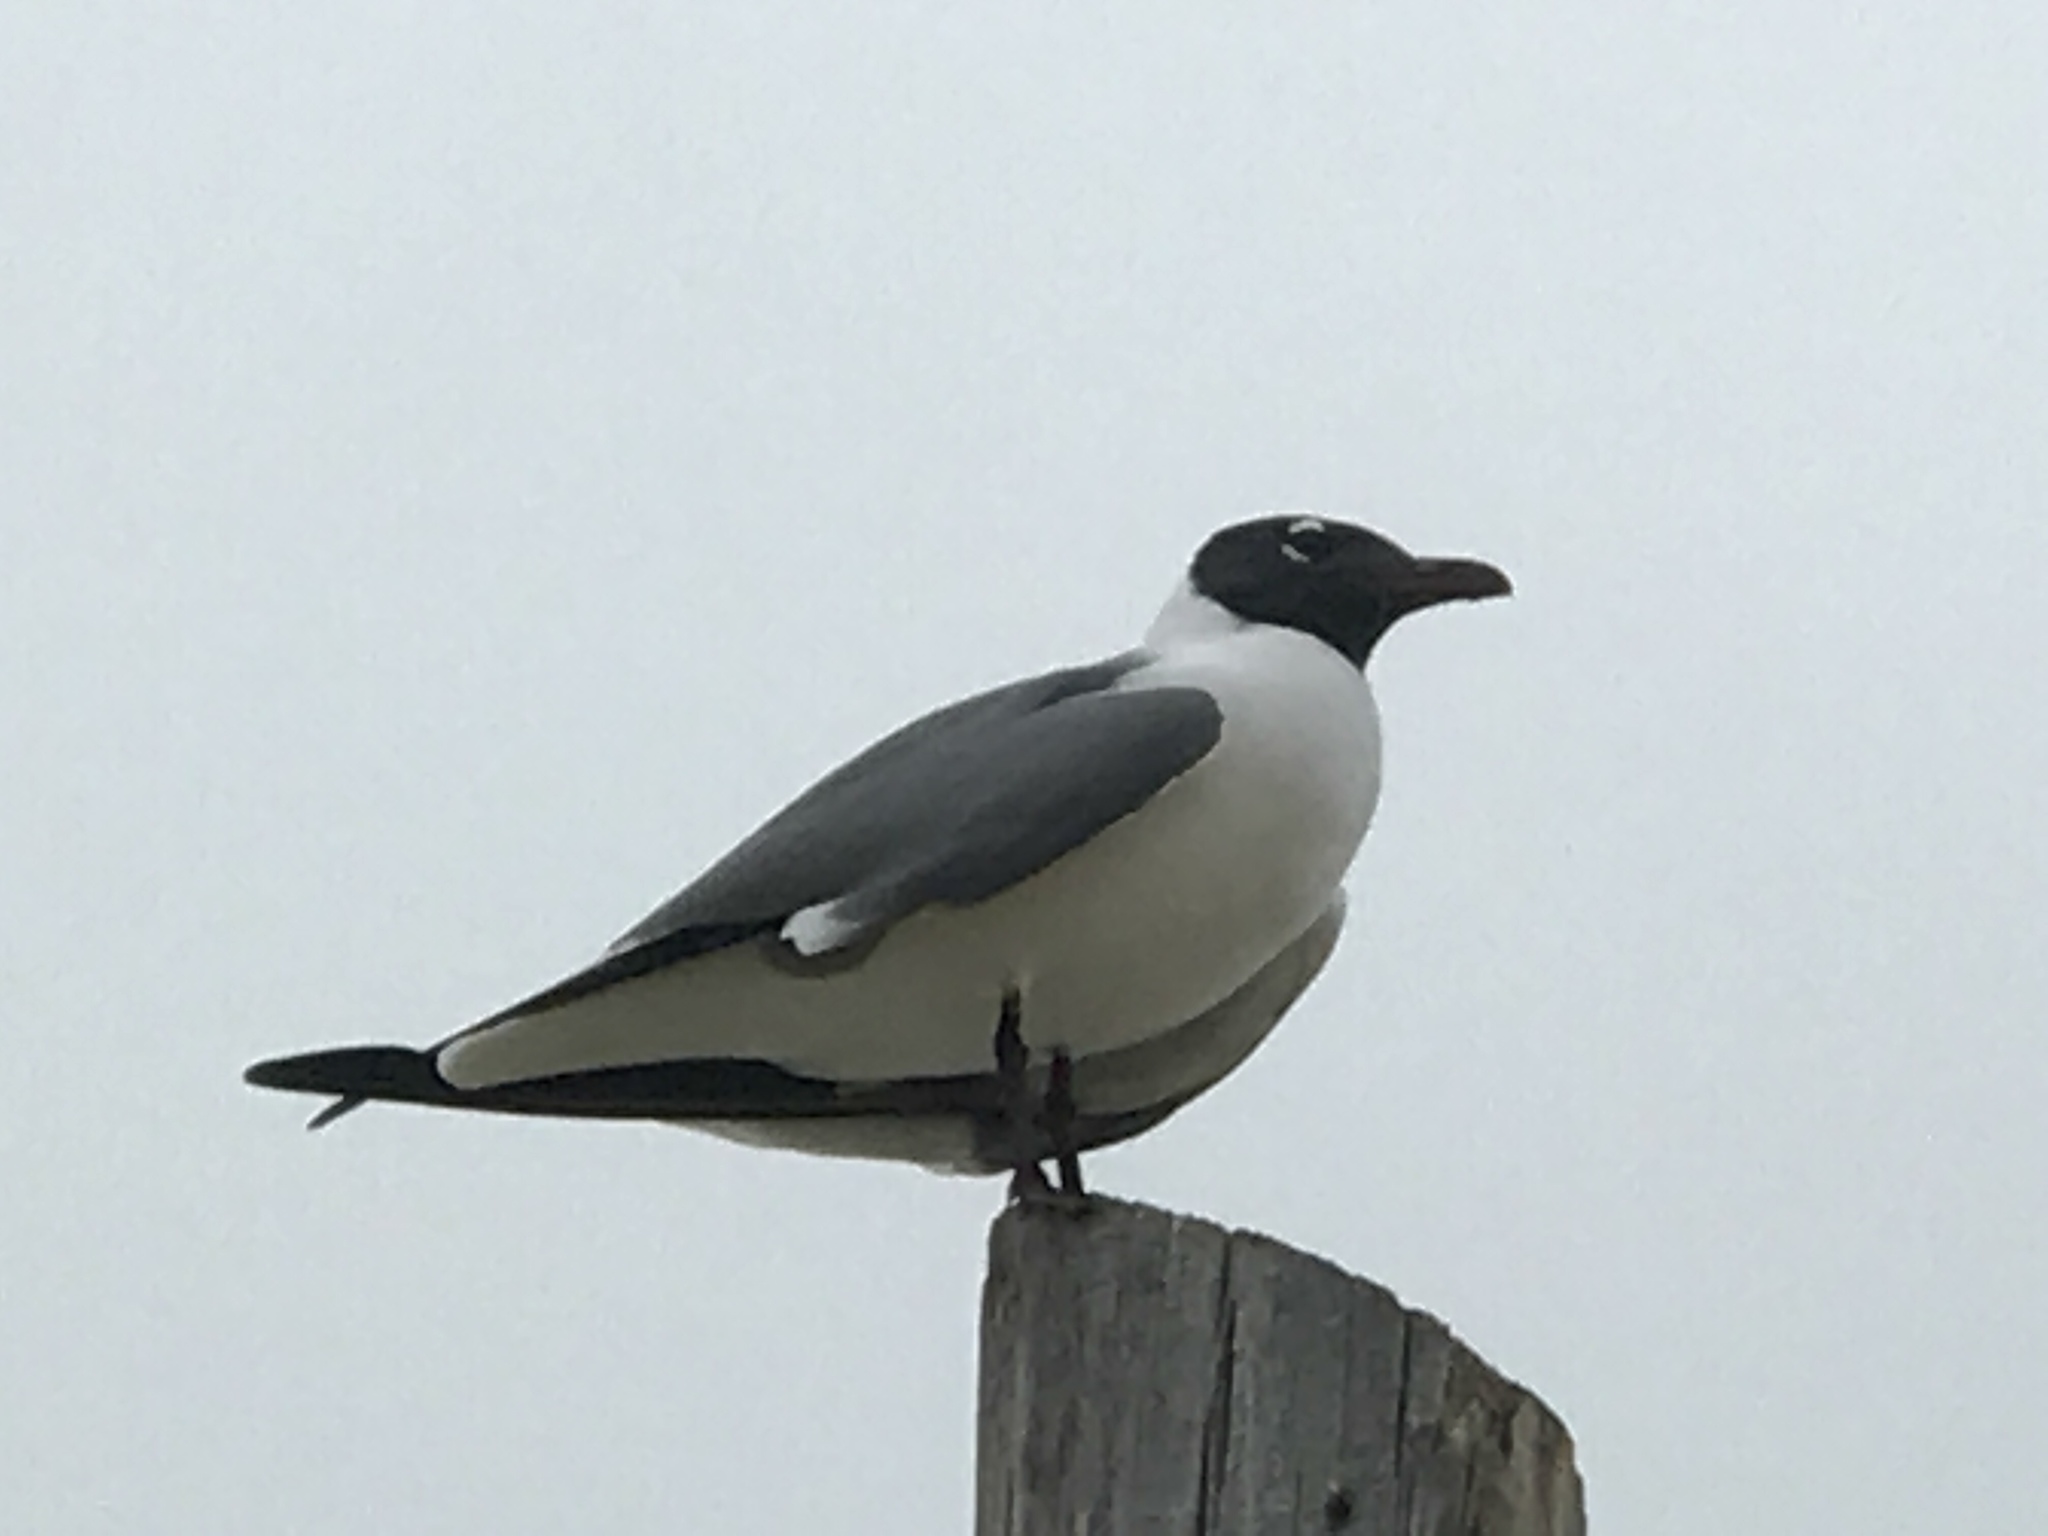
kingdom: Animalia
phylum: Chordata
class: Aves
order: Charadriiformes
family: Laridae
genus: Leucophaeus
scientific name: Leucophaeus atricilla
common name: Laughing gull
